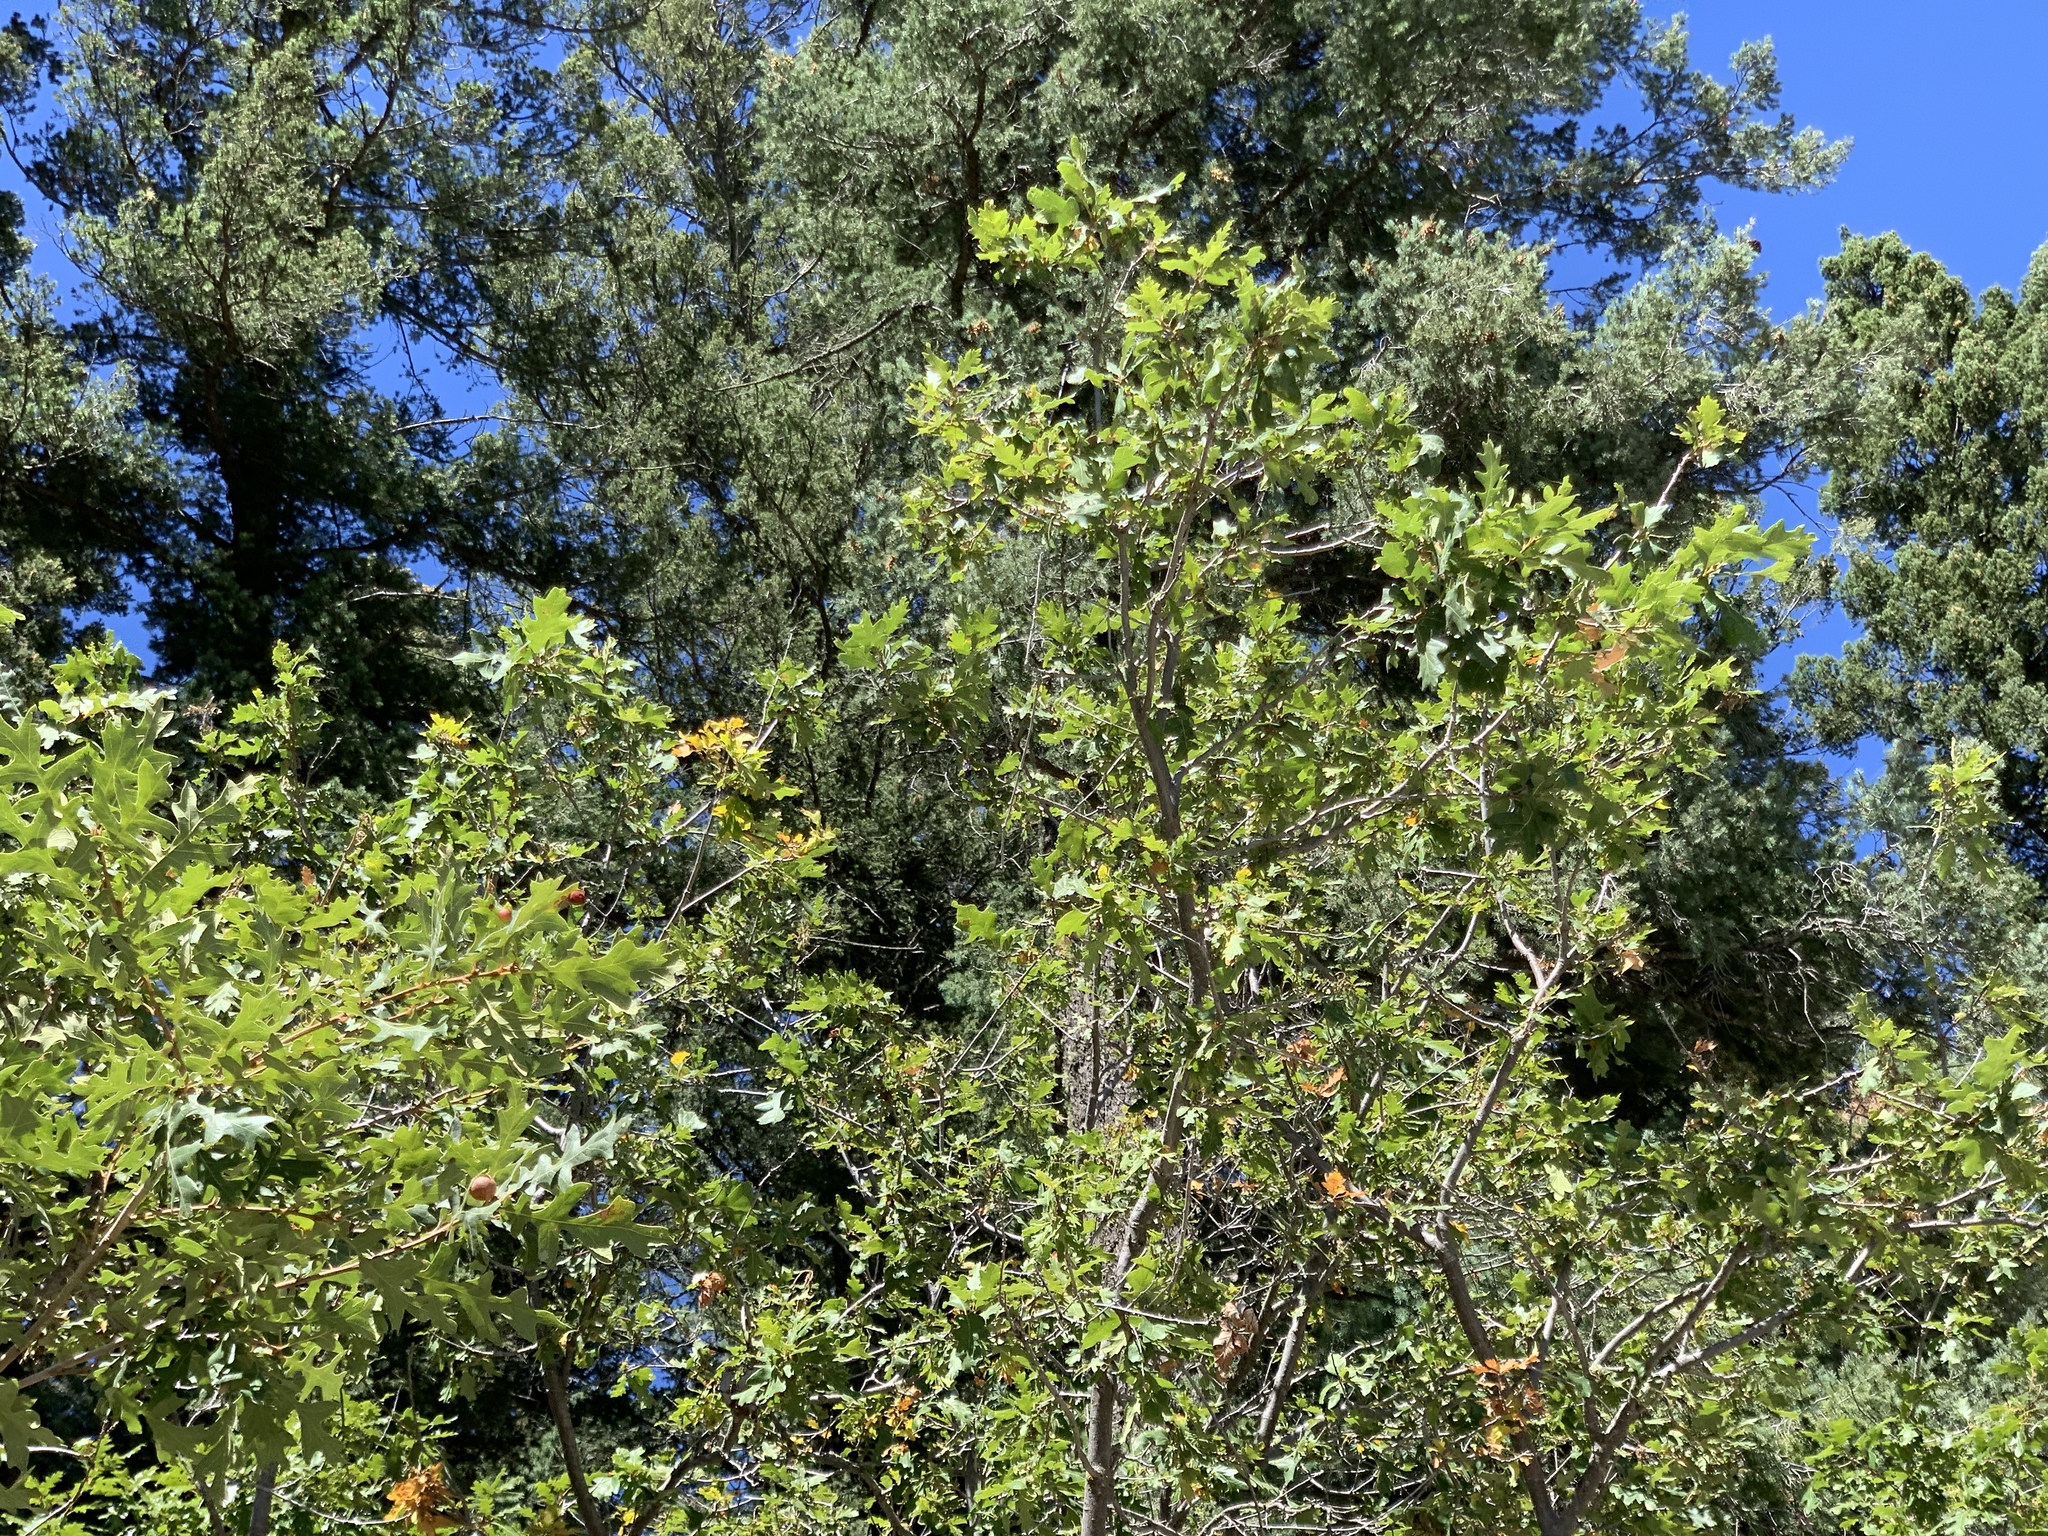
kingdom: Plantae
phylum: Tracheophyta
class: Magnoliopsida
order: Fagales
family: Fagaceae
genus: Quercus
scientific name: Quercus gambelii
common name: Gambel oak
